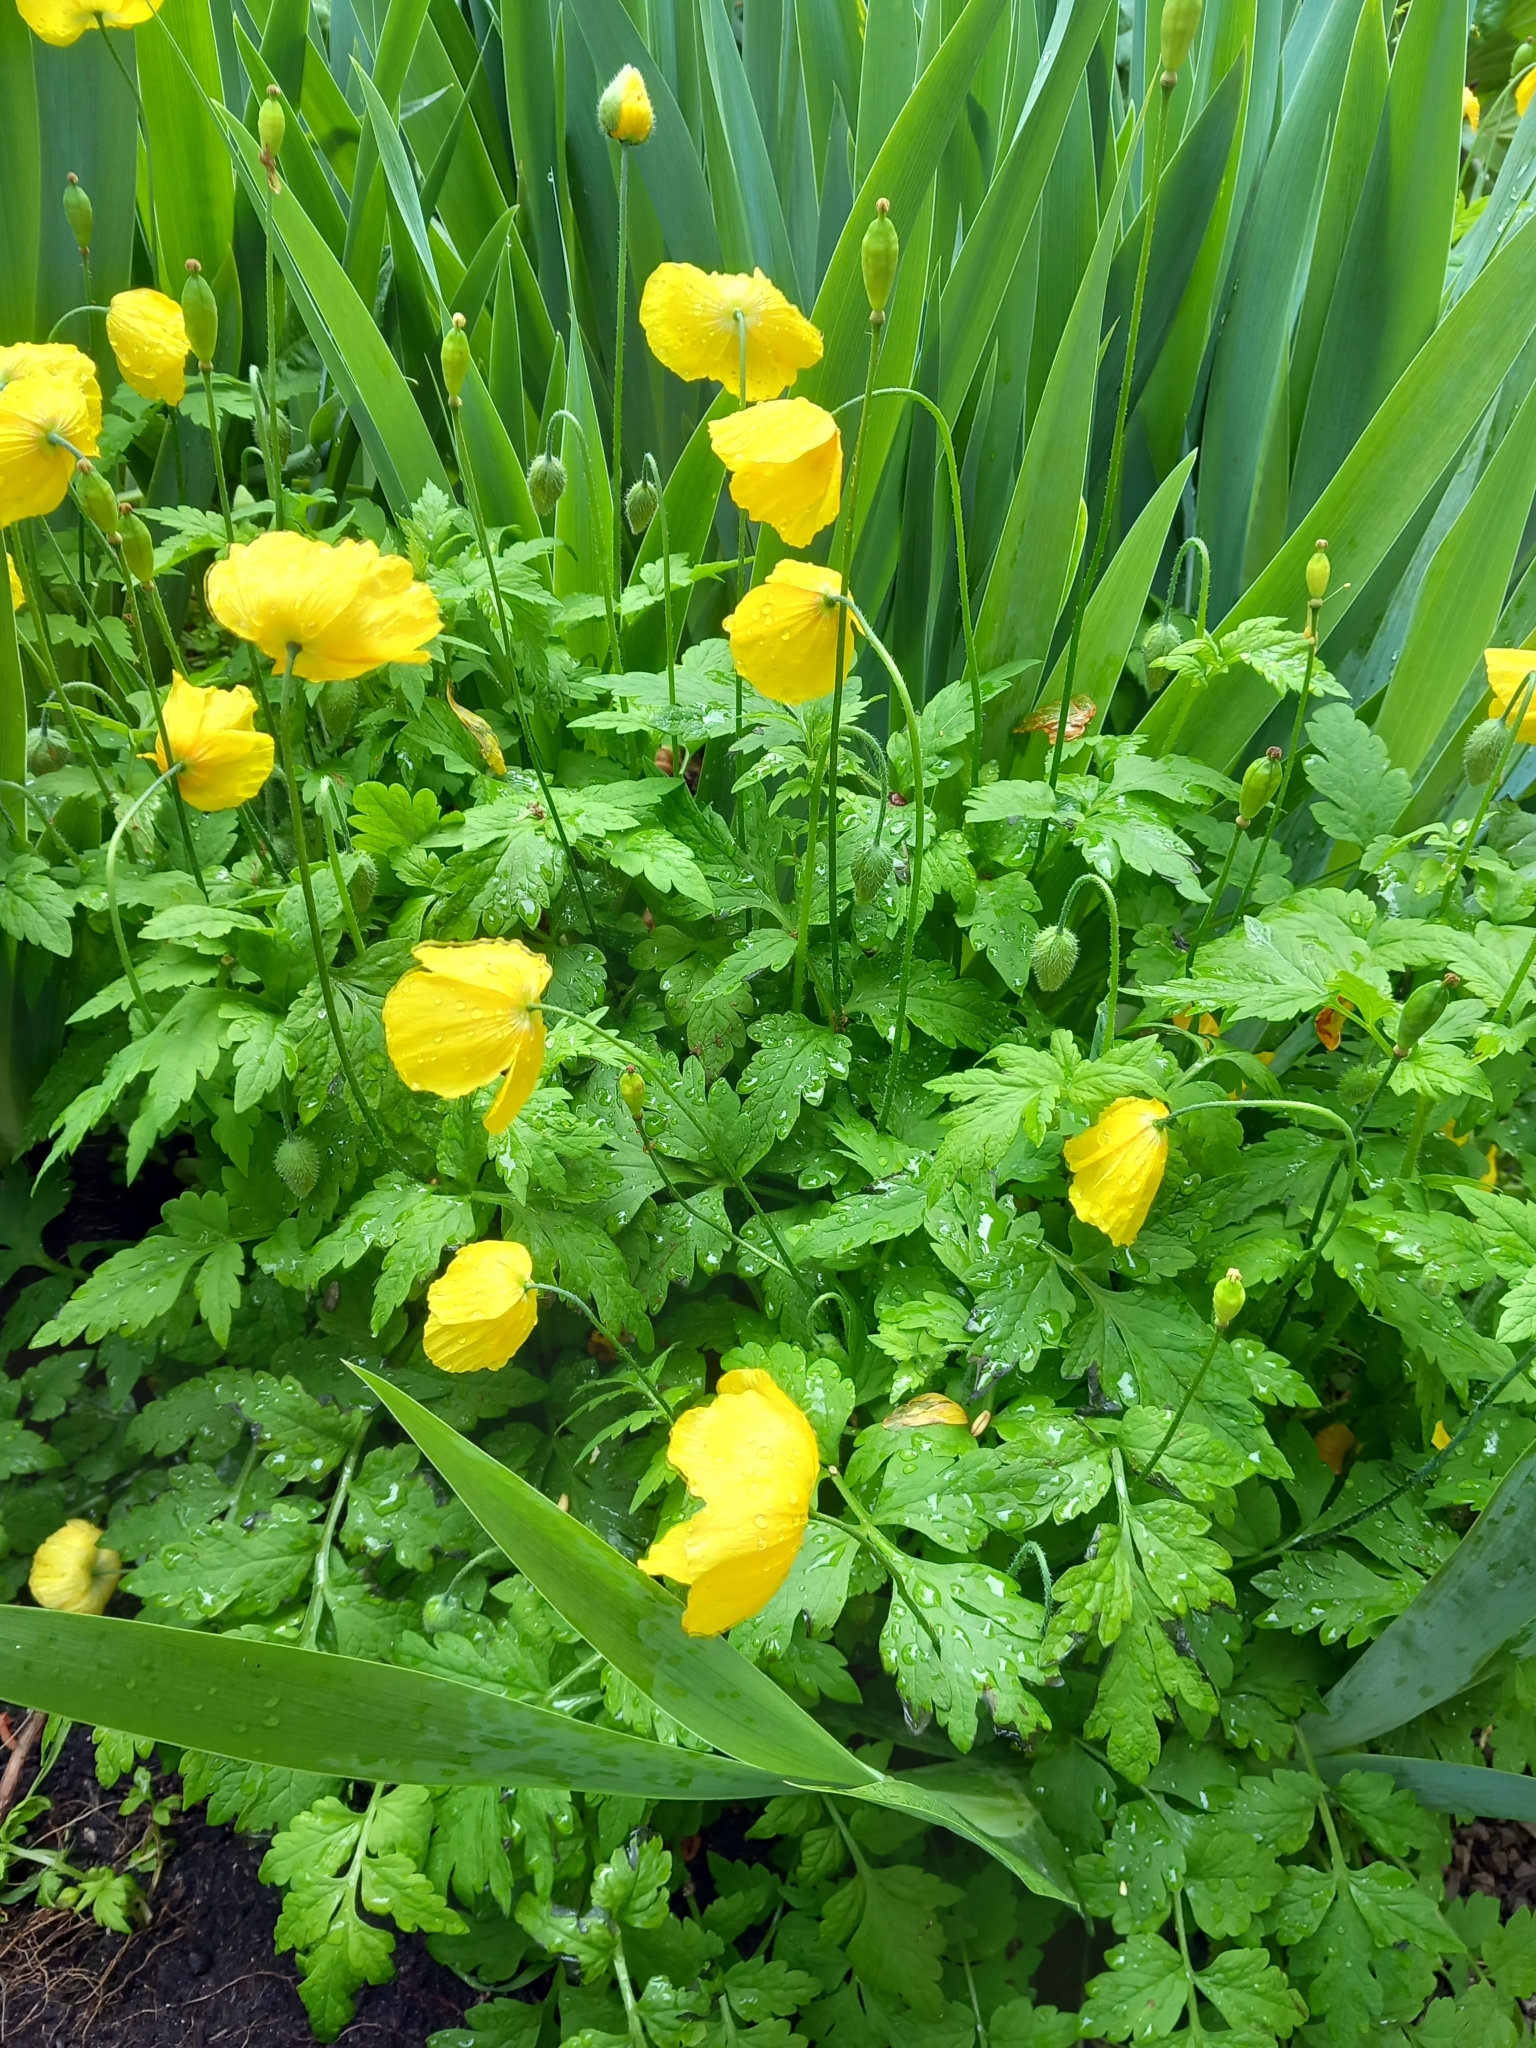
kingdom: Plantae
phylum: Tracheophyta
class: Magnoliopsida
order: Ranunculales
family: Papaveraceae
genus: Papaver
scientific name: Papaver cambricum
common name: Poppy
